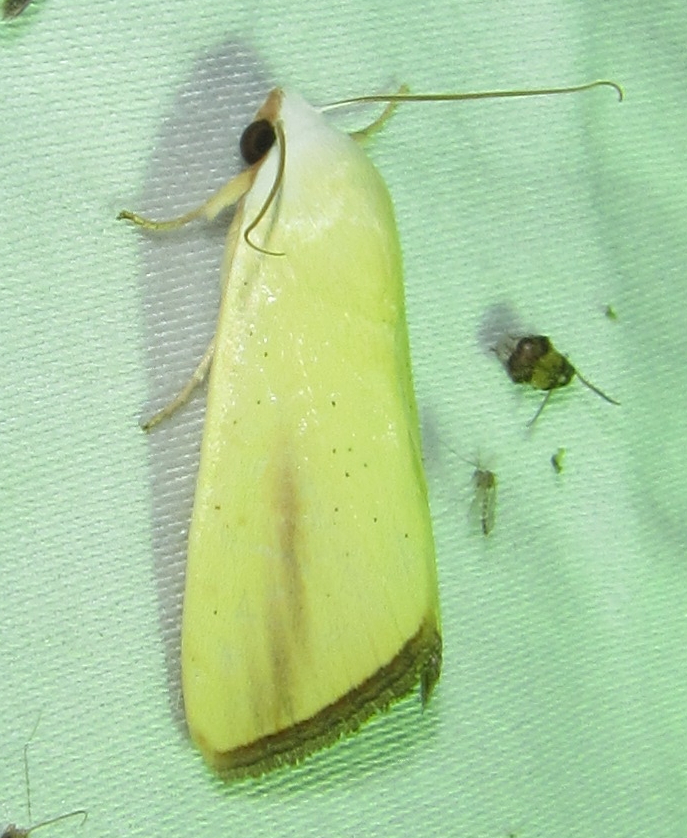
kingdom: Animalia
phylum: Arthropoda
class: Insecta
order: Lepidoptera
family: Nolidae
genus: Pardoxia
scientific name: Pardoxia graellsii
